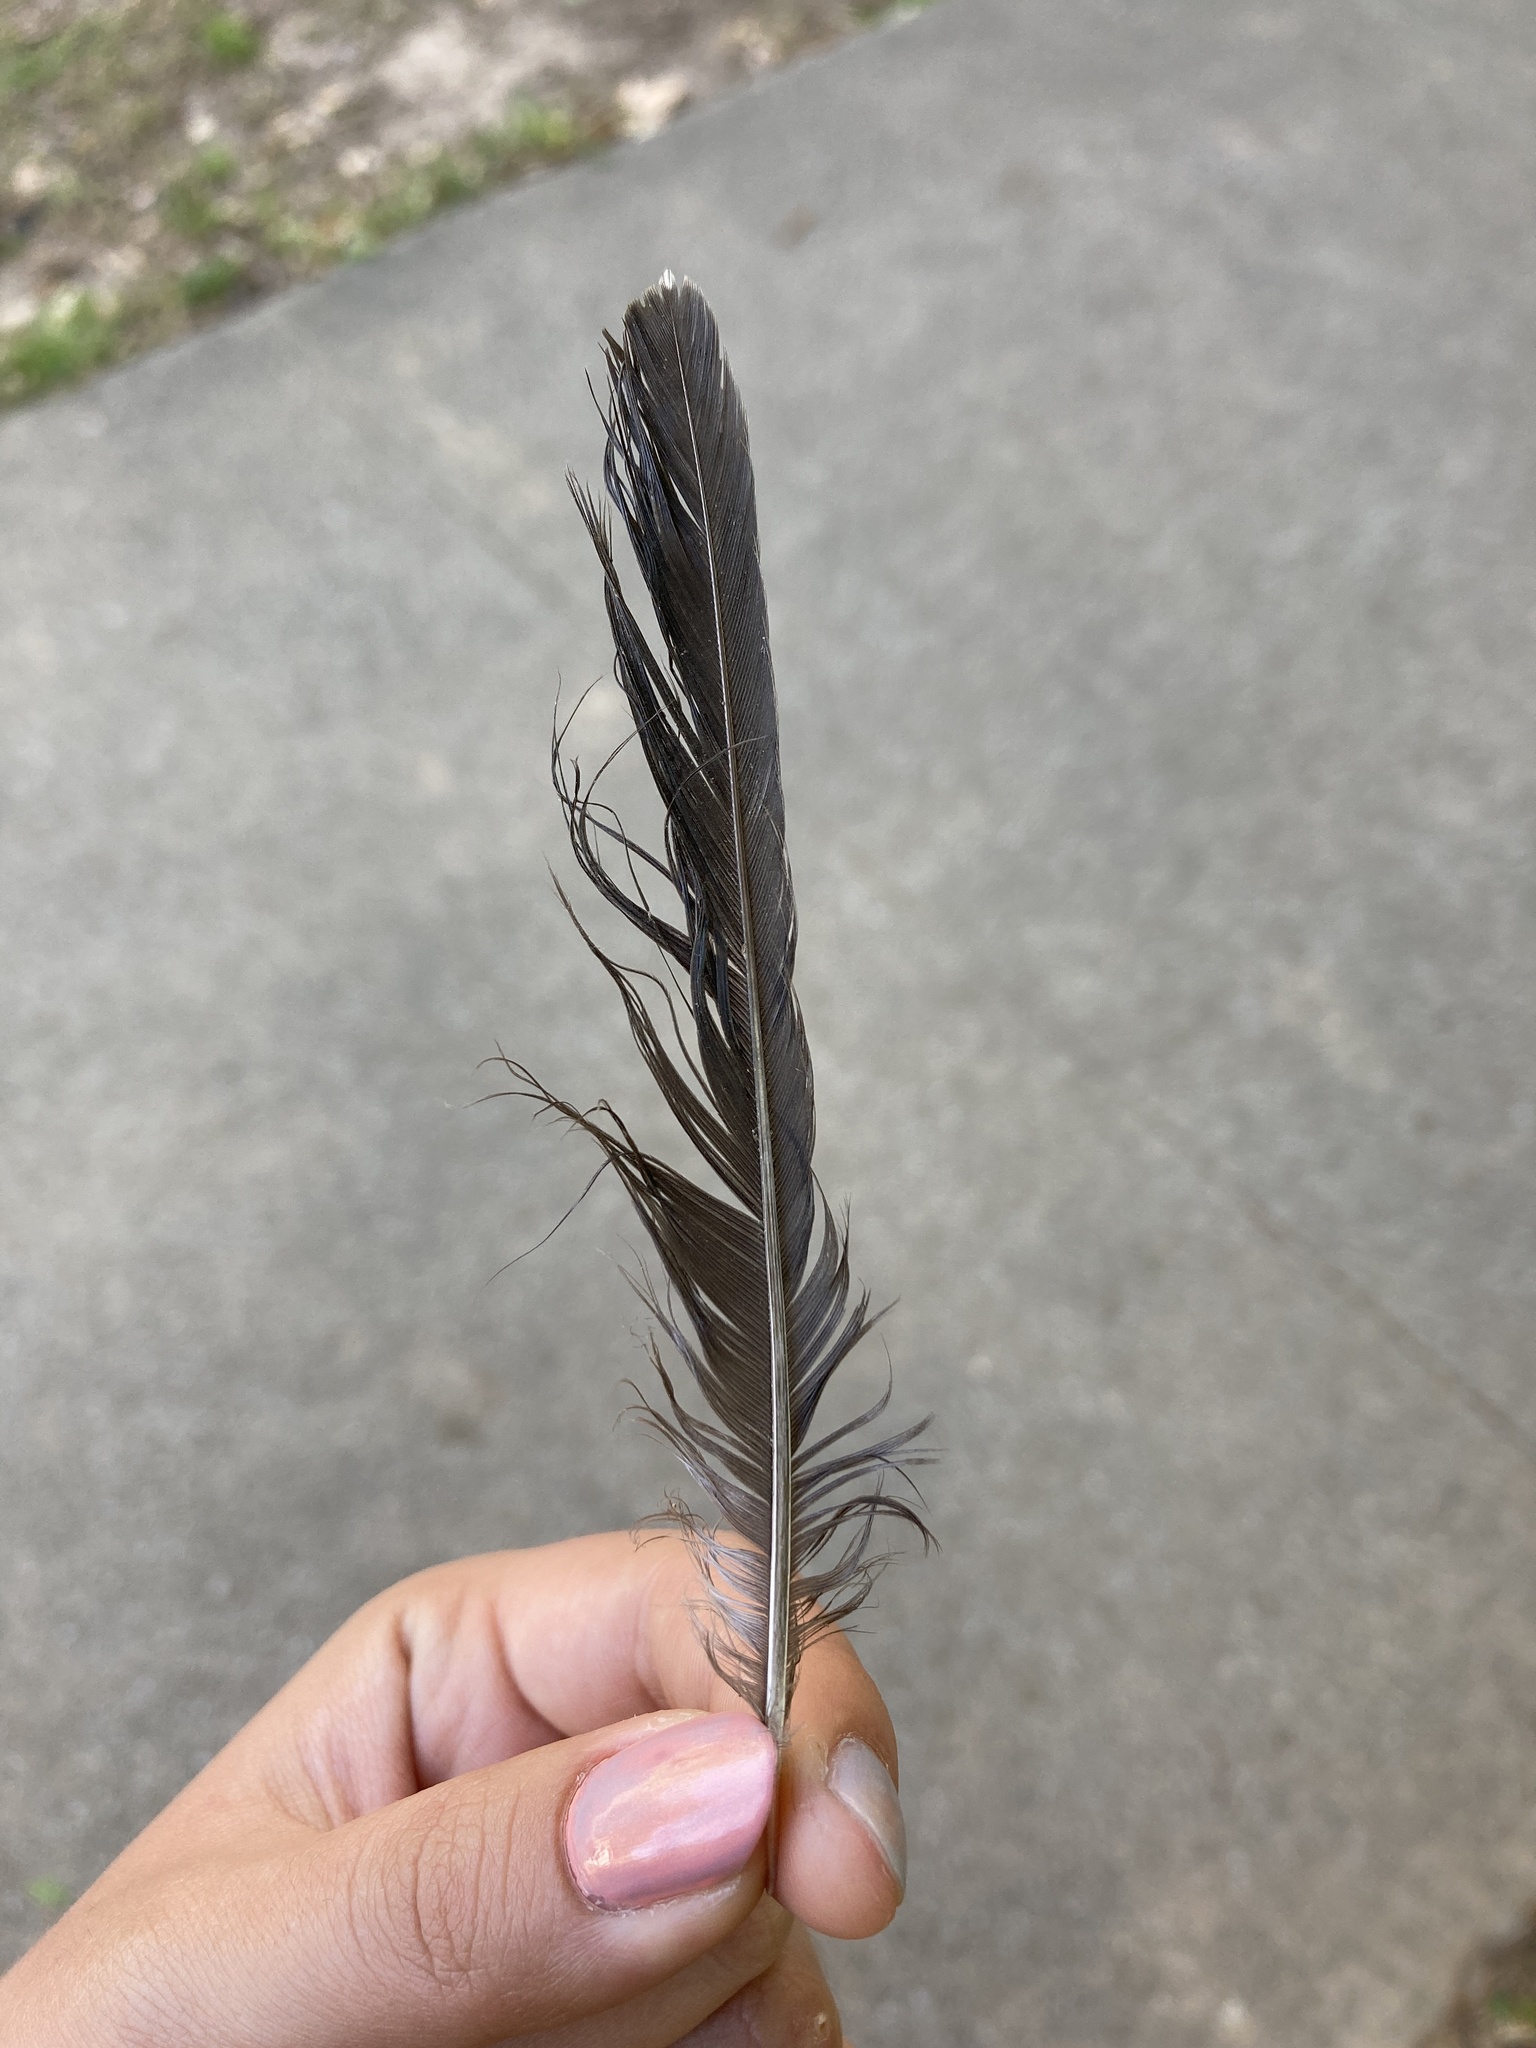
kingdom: Animalia
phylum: Chordata
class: Aves
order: Passeriformes
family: Turdidae
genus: Turdus
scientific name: Turdus migratorius
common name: American robin
